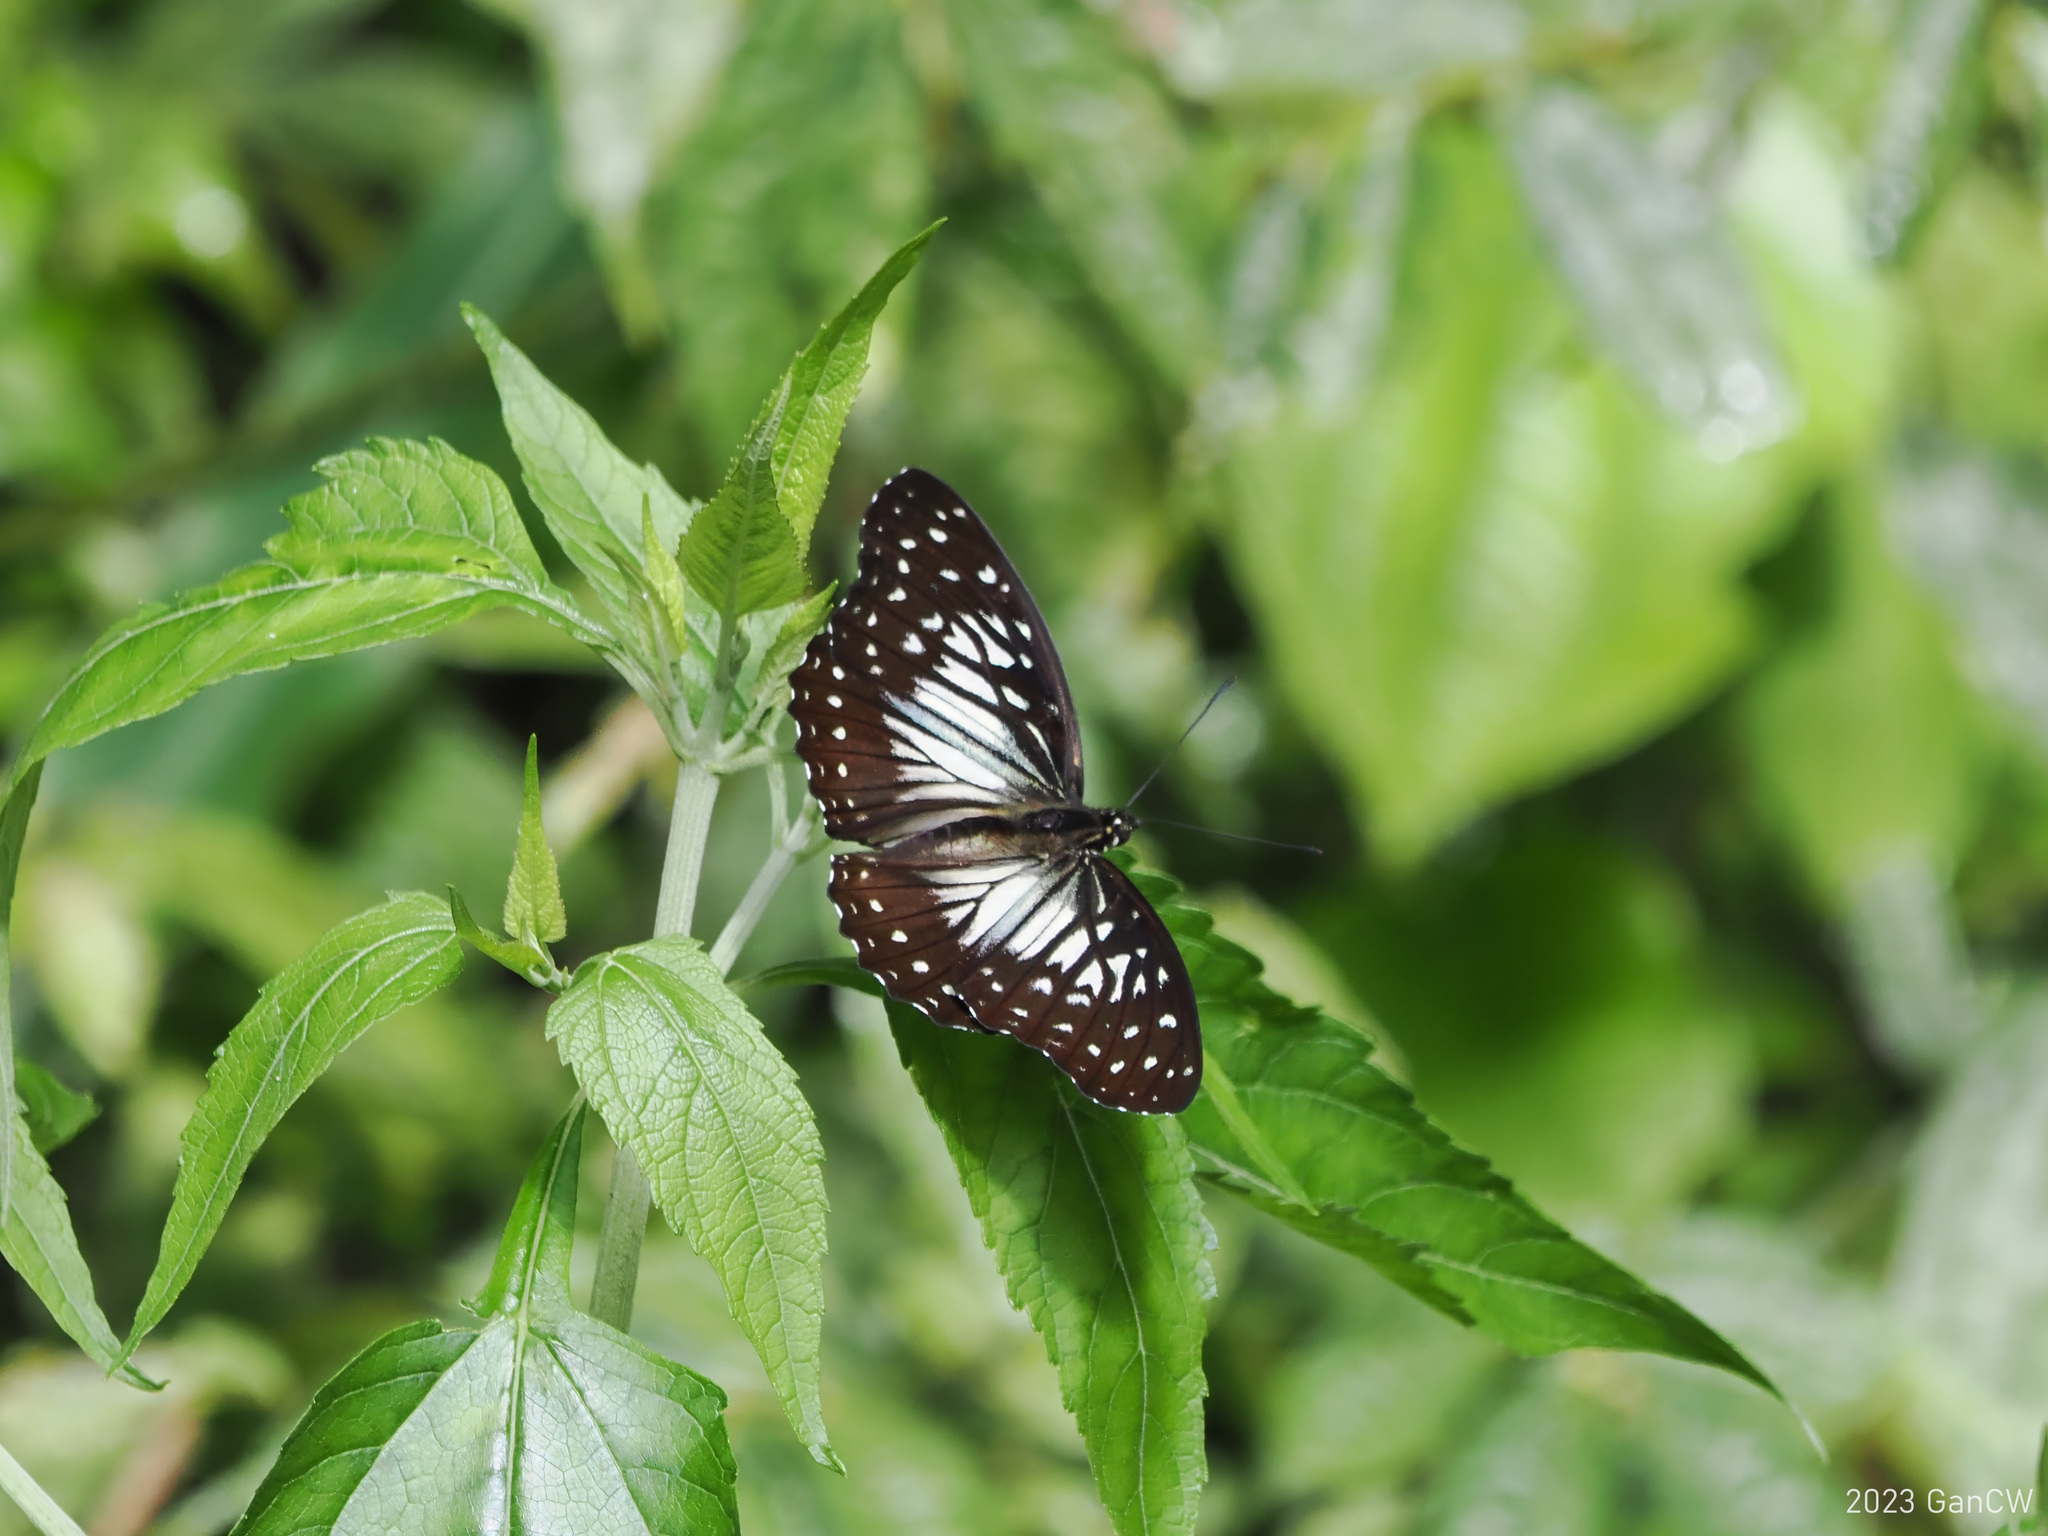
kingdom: Animalia
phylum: Arthropoda
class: Insecta
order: Lepidoptera
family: Nymphalidae
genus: Hestinalis
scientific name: Hestinalis divona
